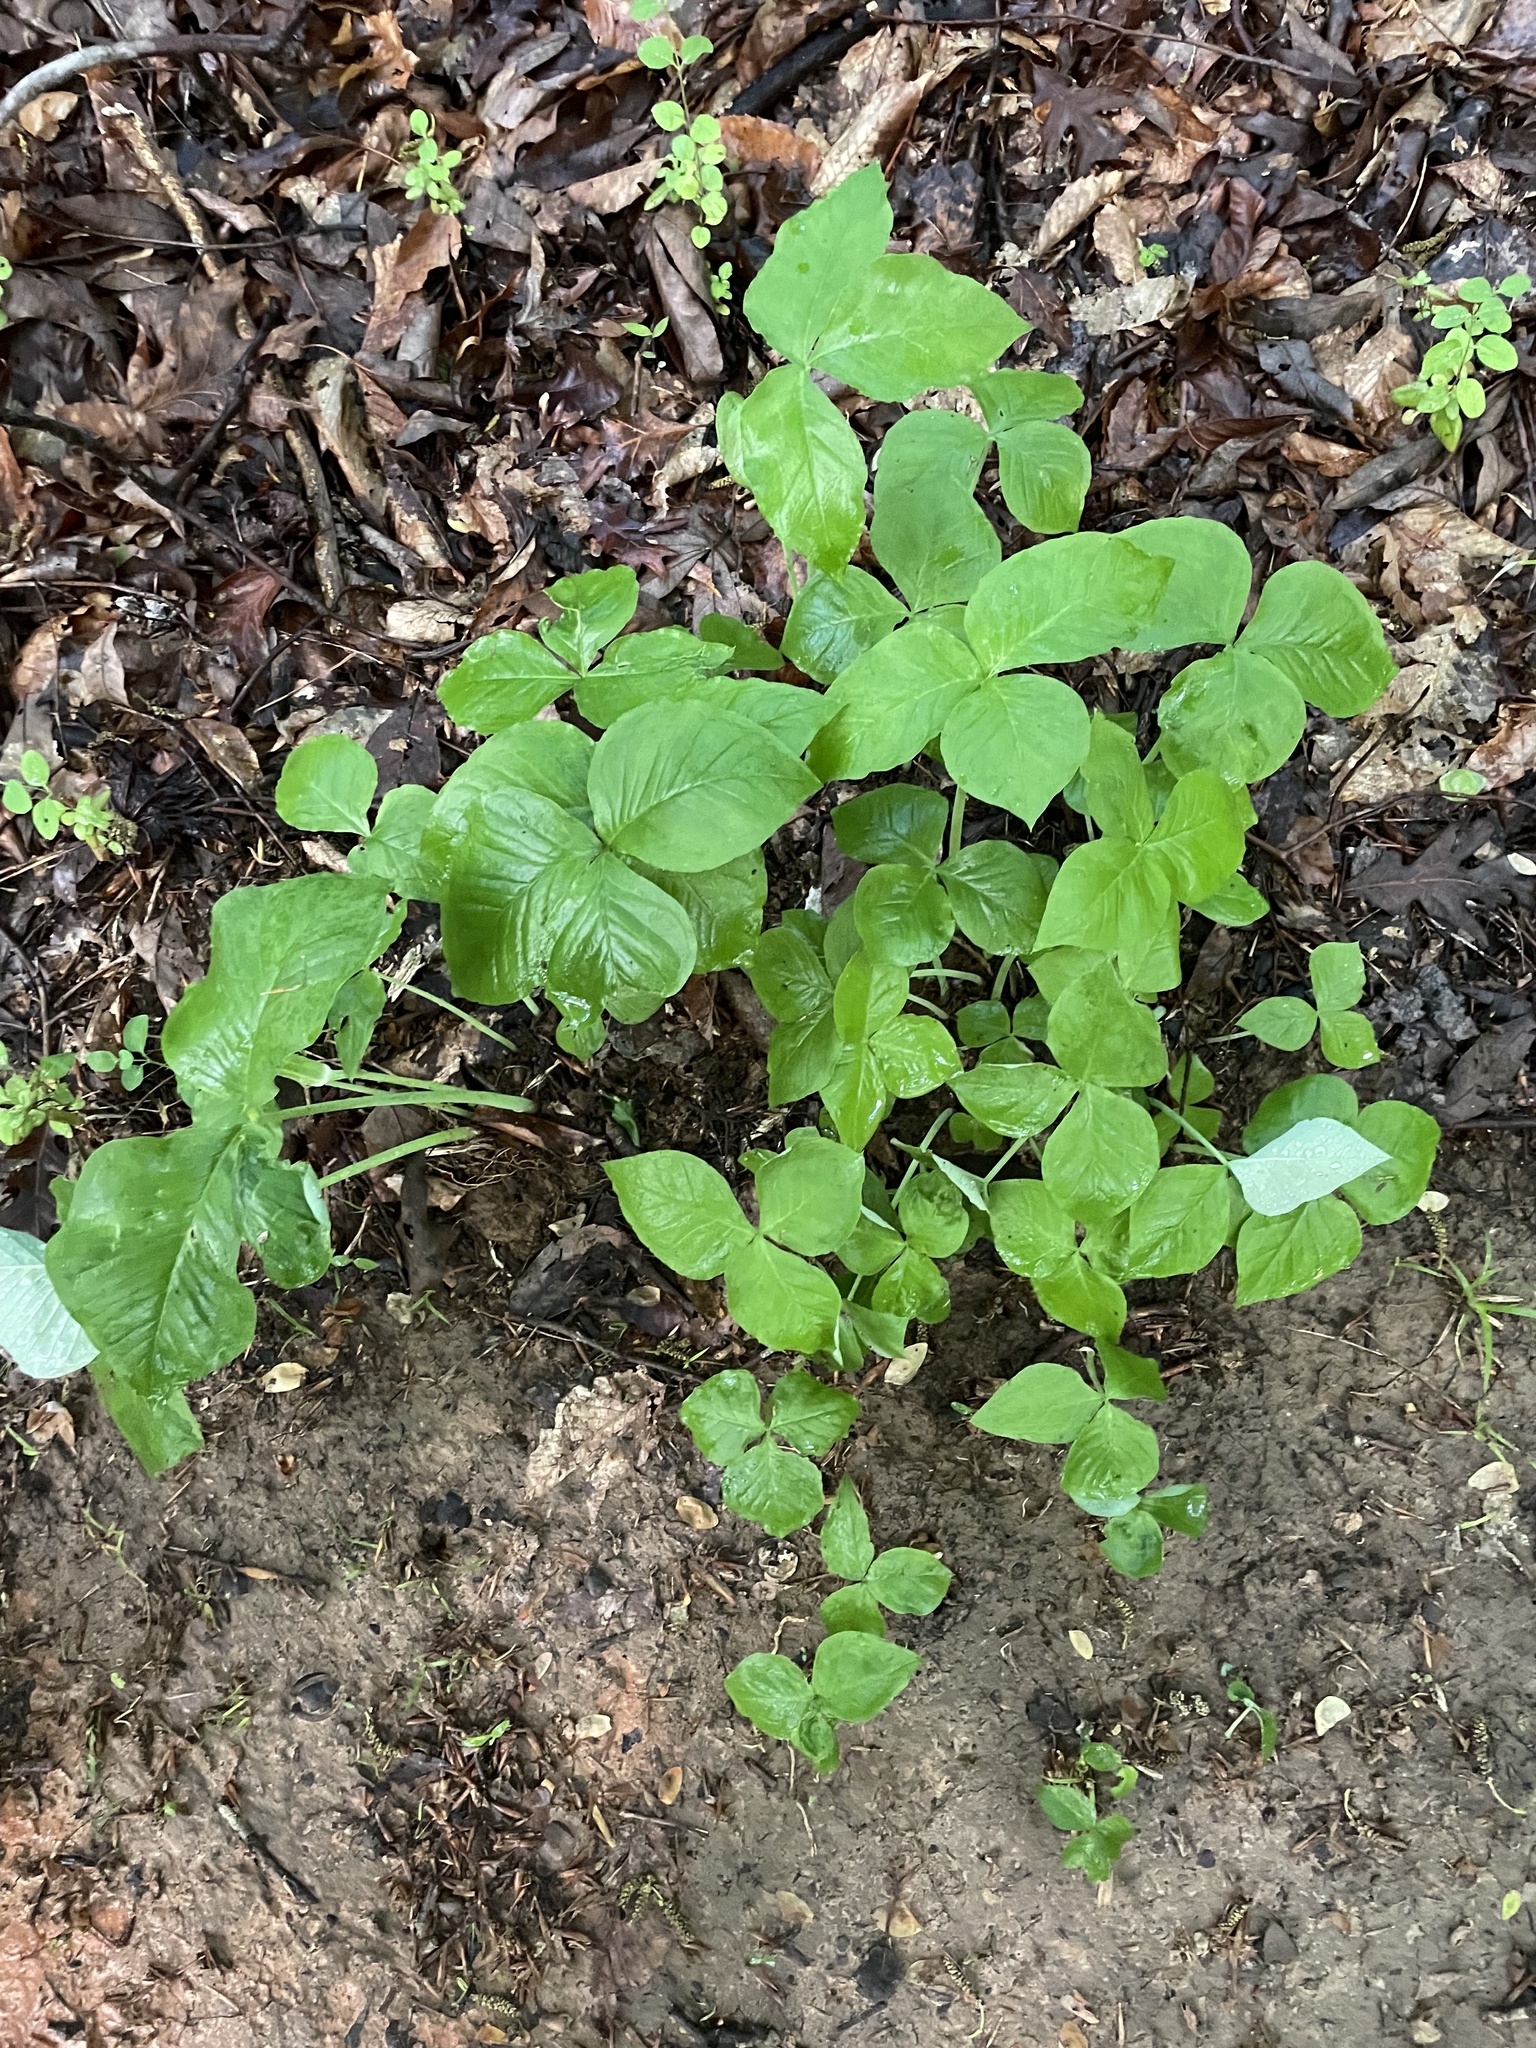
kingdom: Plantae
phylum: Tracheophyta
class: Liliopsida
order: Alismatales
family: Araceae
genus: Arisaema
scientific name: Arisaema triphyllum
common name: Jack-in-the-pulpit
